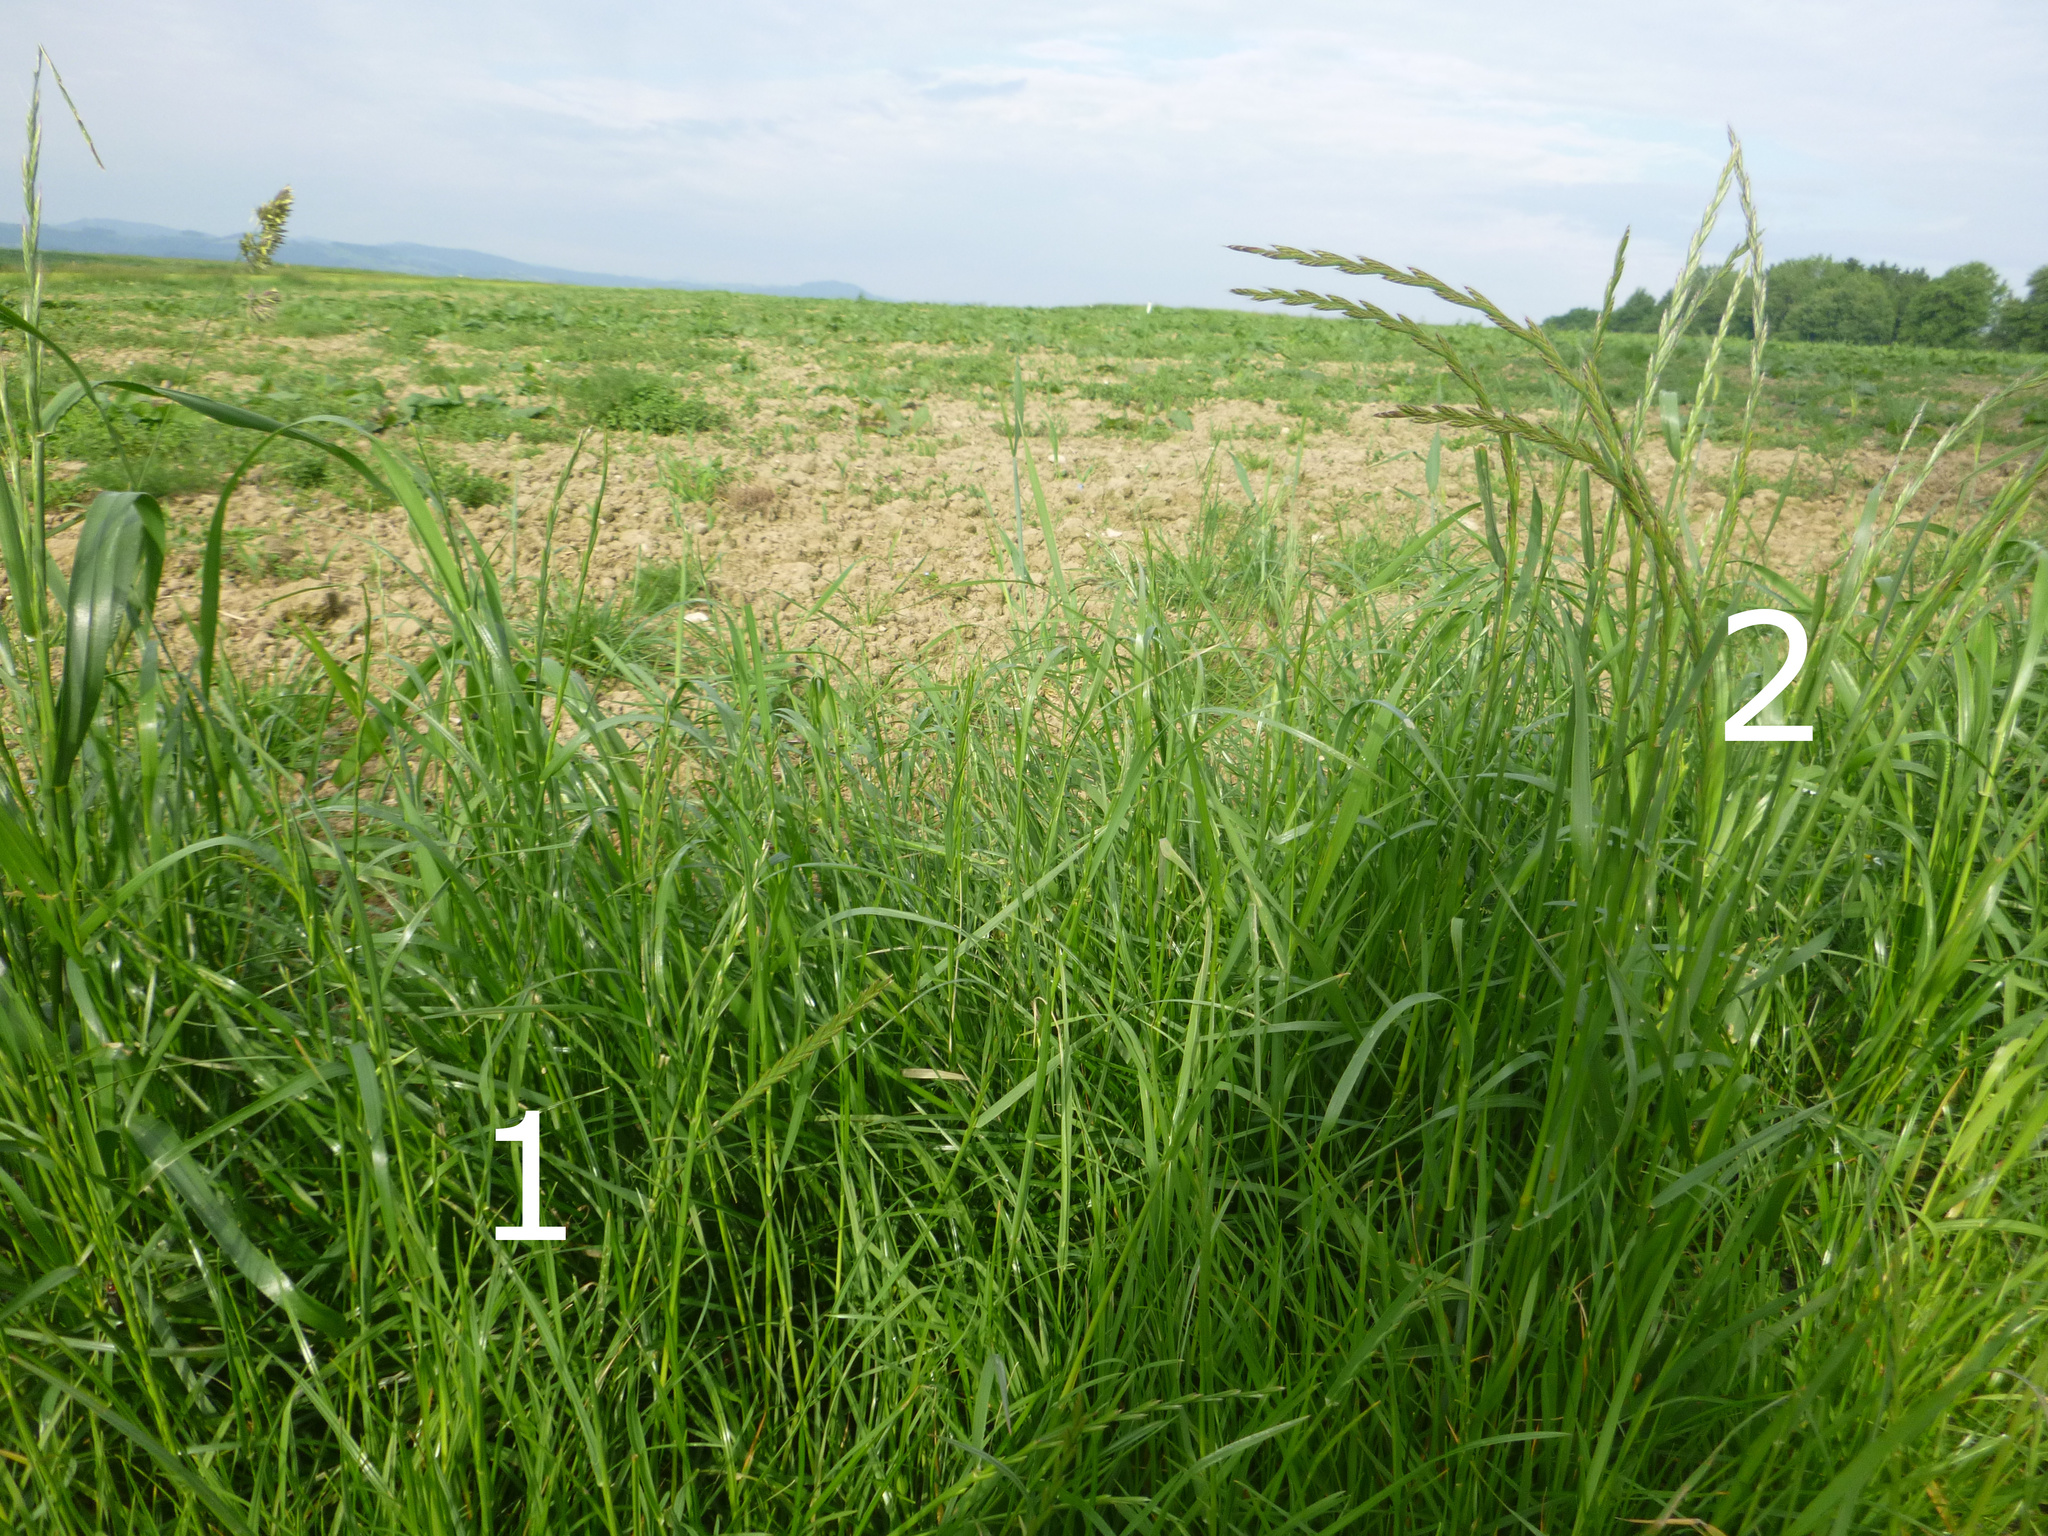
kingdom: Plantae
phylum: Tracheophyta
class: Liliopsida
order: Poales
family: Poaceae
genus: Lolium
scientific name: Lolium perenne
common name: Perennial ryegrass
